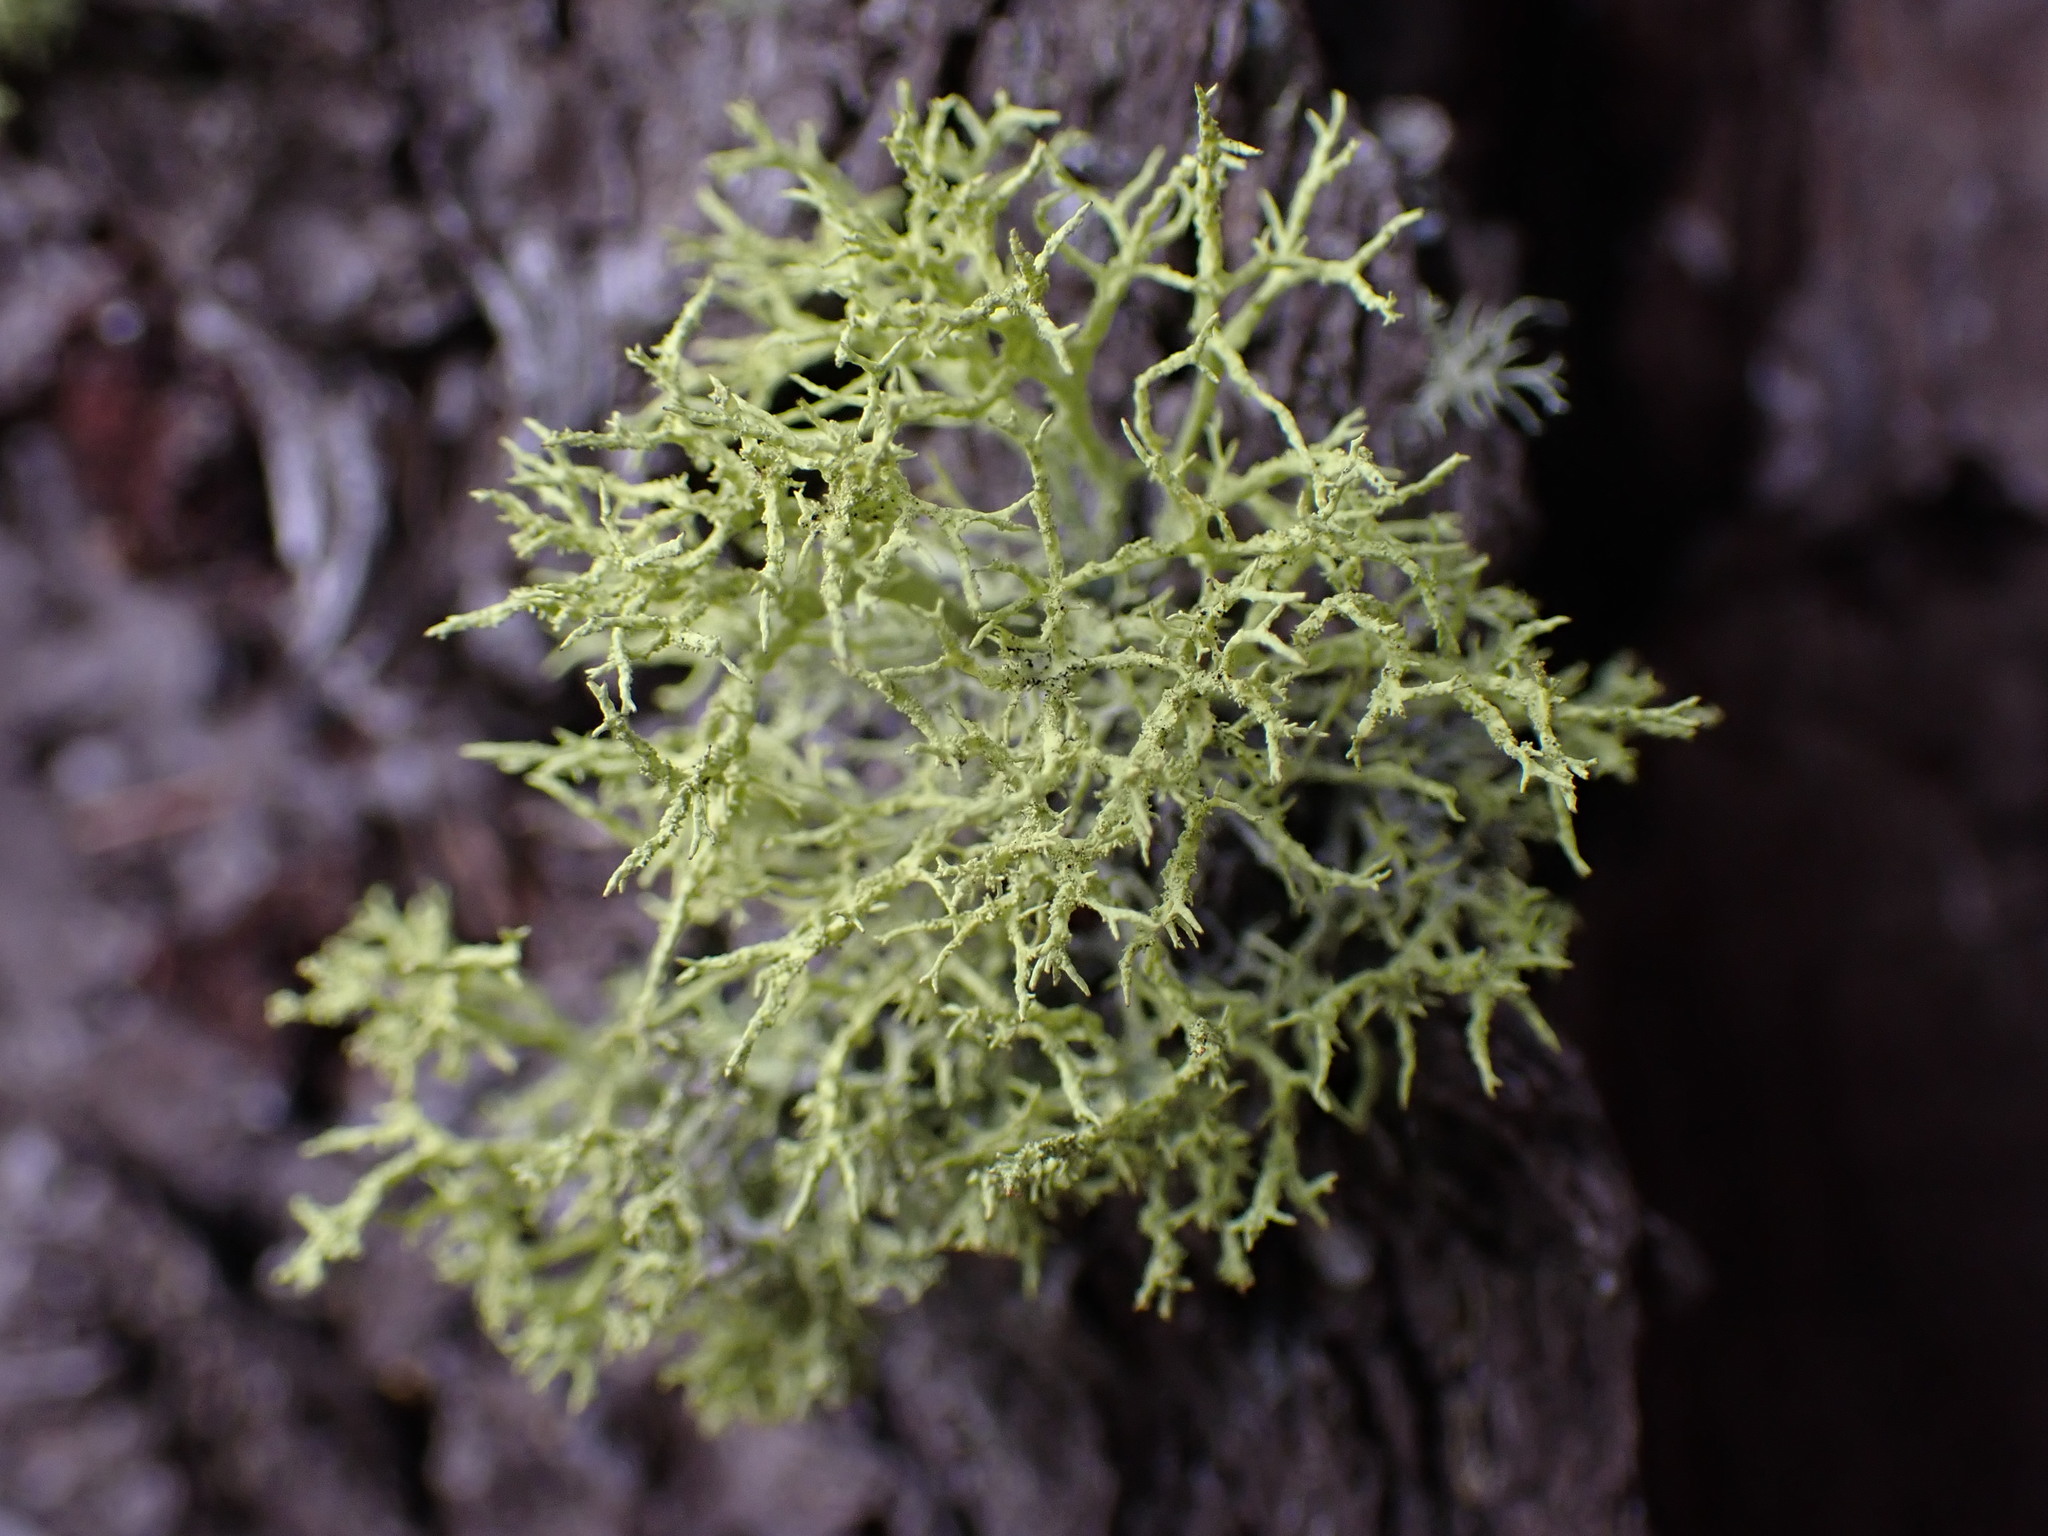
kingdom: Fungi
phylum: Ascomycota
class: Lecanoromycetes
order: Lecanorales
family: Parmeliaceae
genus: Letharia
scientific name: Letharia vulpina
